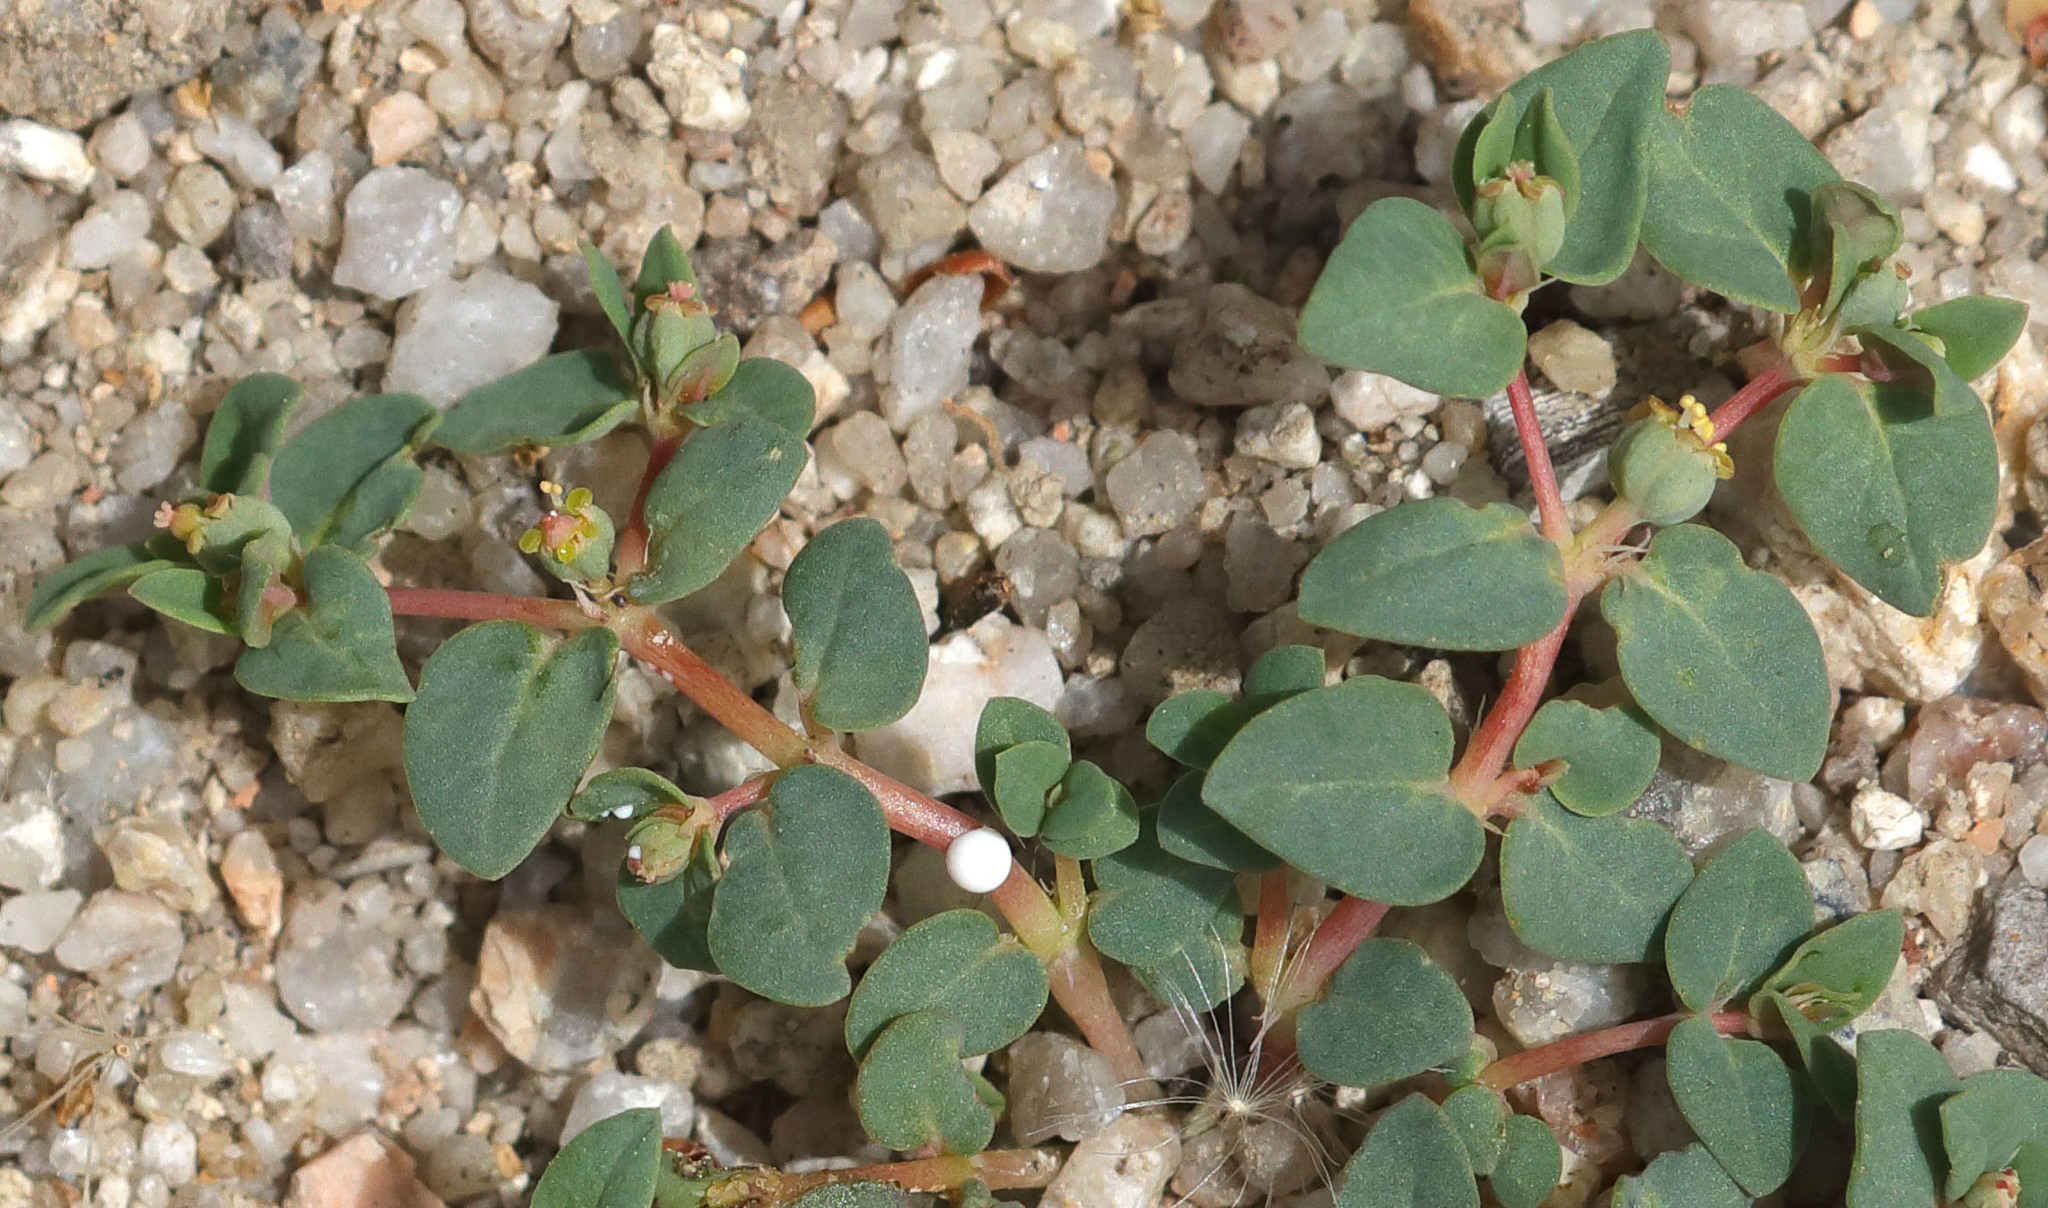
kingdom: Plantae
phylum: Tracheophyta
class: Magnoliopsida
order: Malpighiales
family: Euphorbiaceae
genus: Euphorbia
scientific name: Euphorbia ocellata
